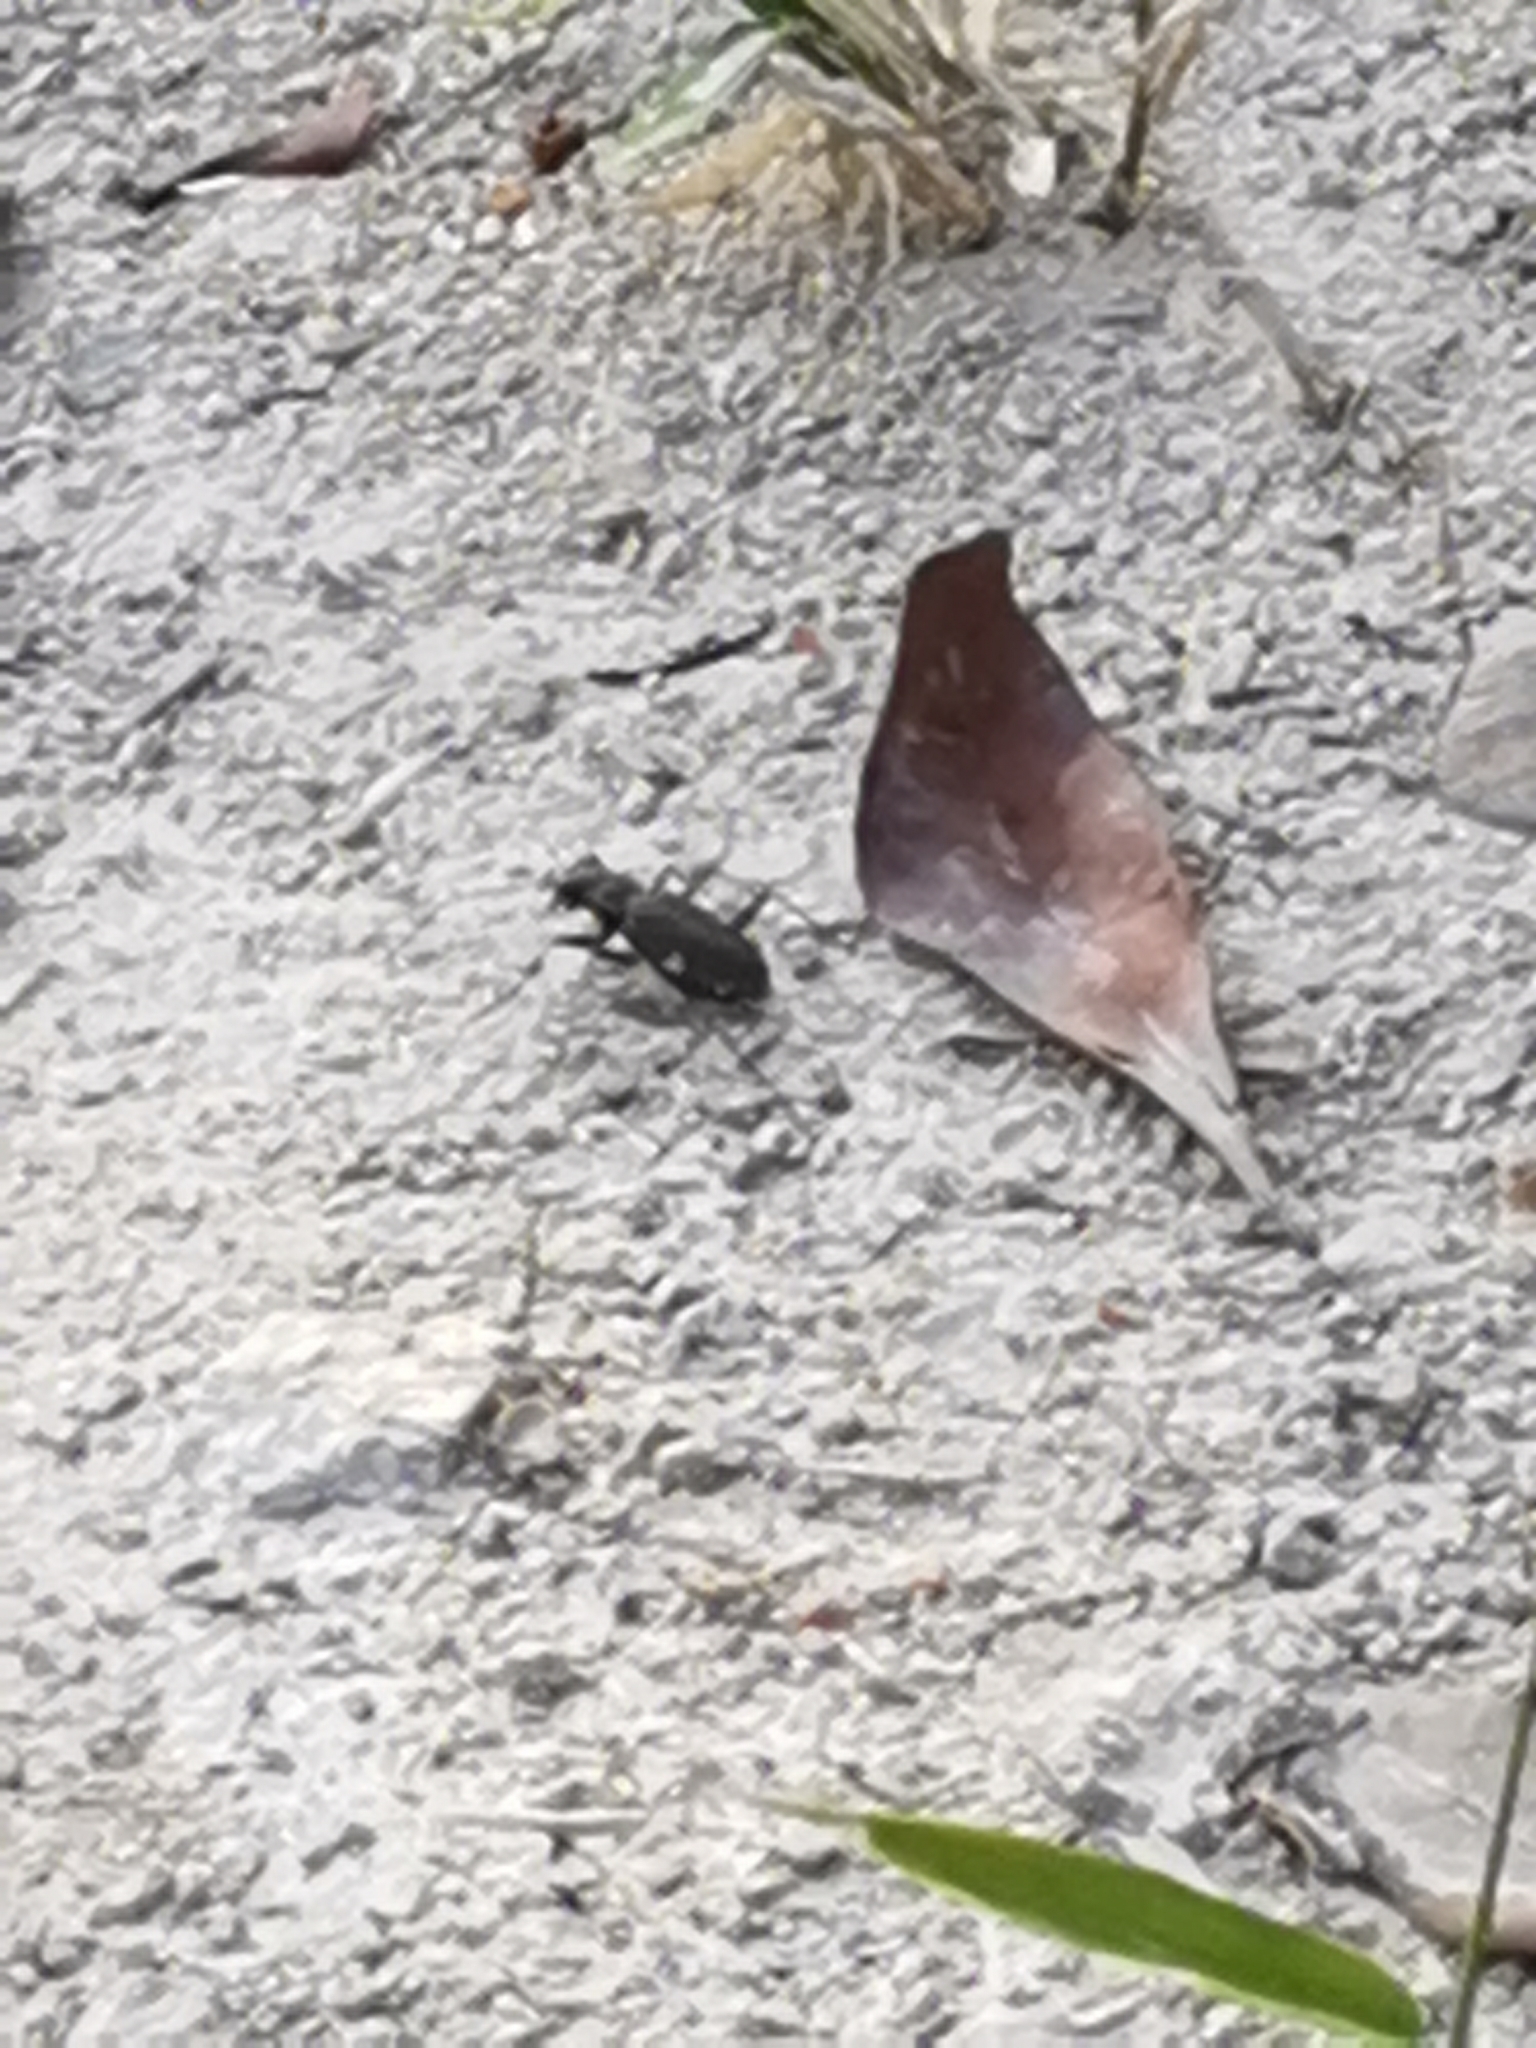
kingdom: Animalia
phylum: Arthropoda
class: Insecta
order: Coleoptera
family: Carabidae
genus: Cicindela
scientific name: Cicindela japana
